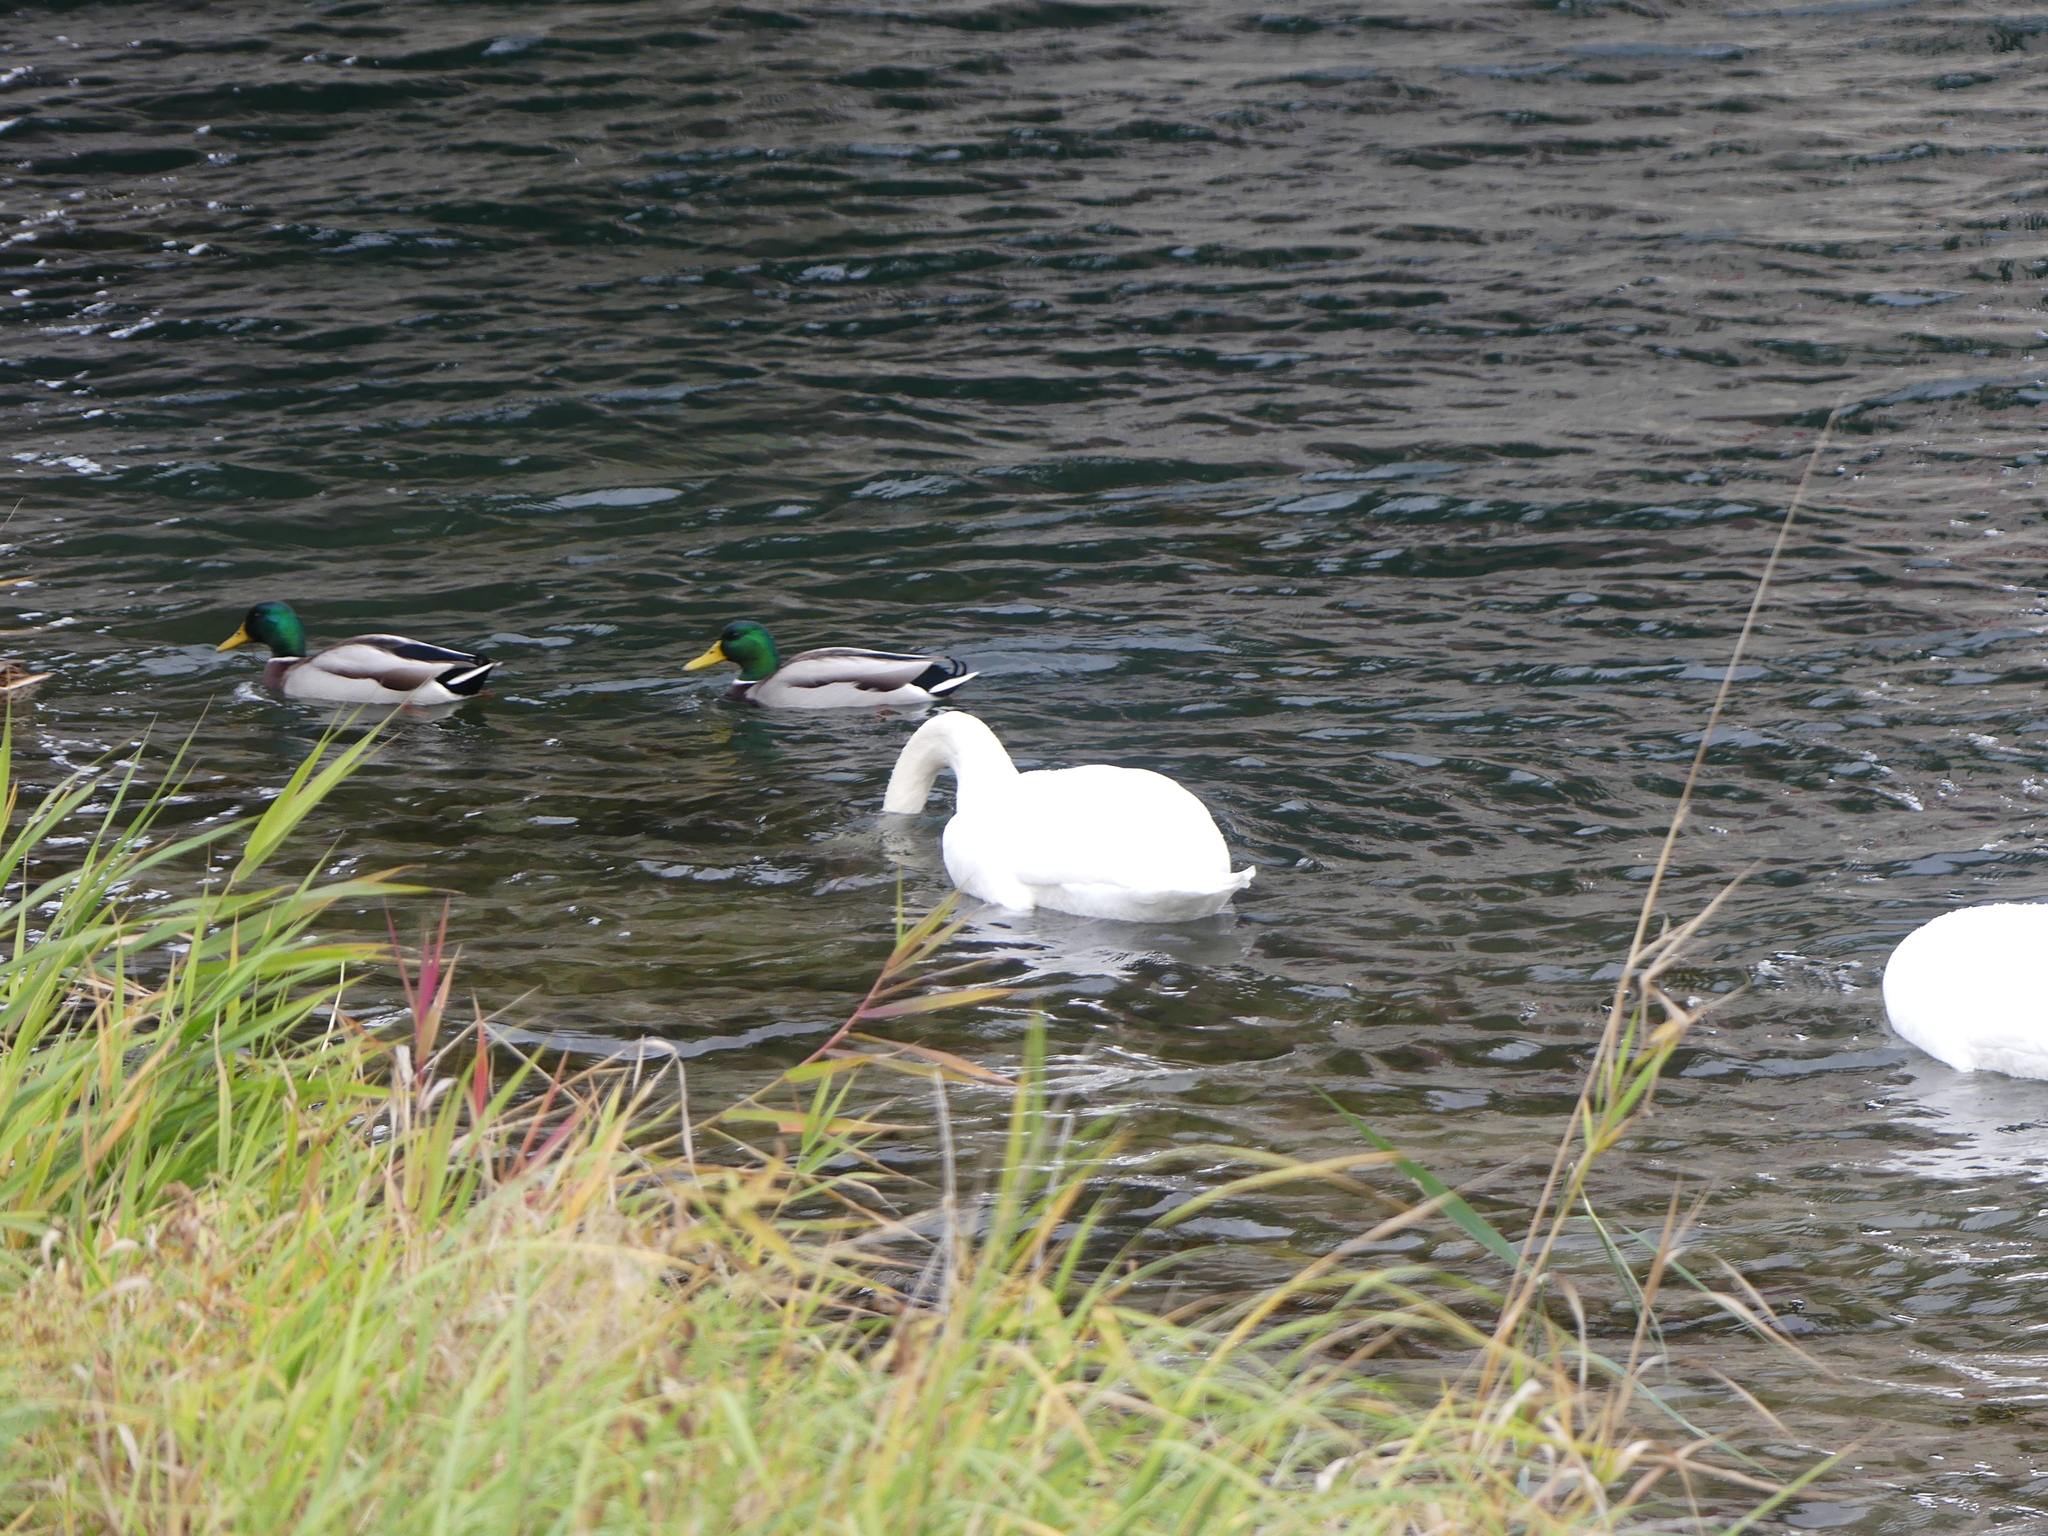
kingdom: Animalia
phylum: Chordata
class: Aves
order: Anseriformes
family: Anatidae
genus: Anas
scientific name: Anas platyrhynchos
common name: Mallard
